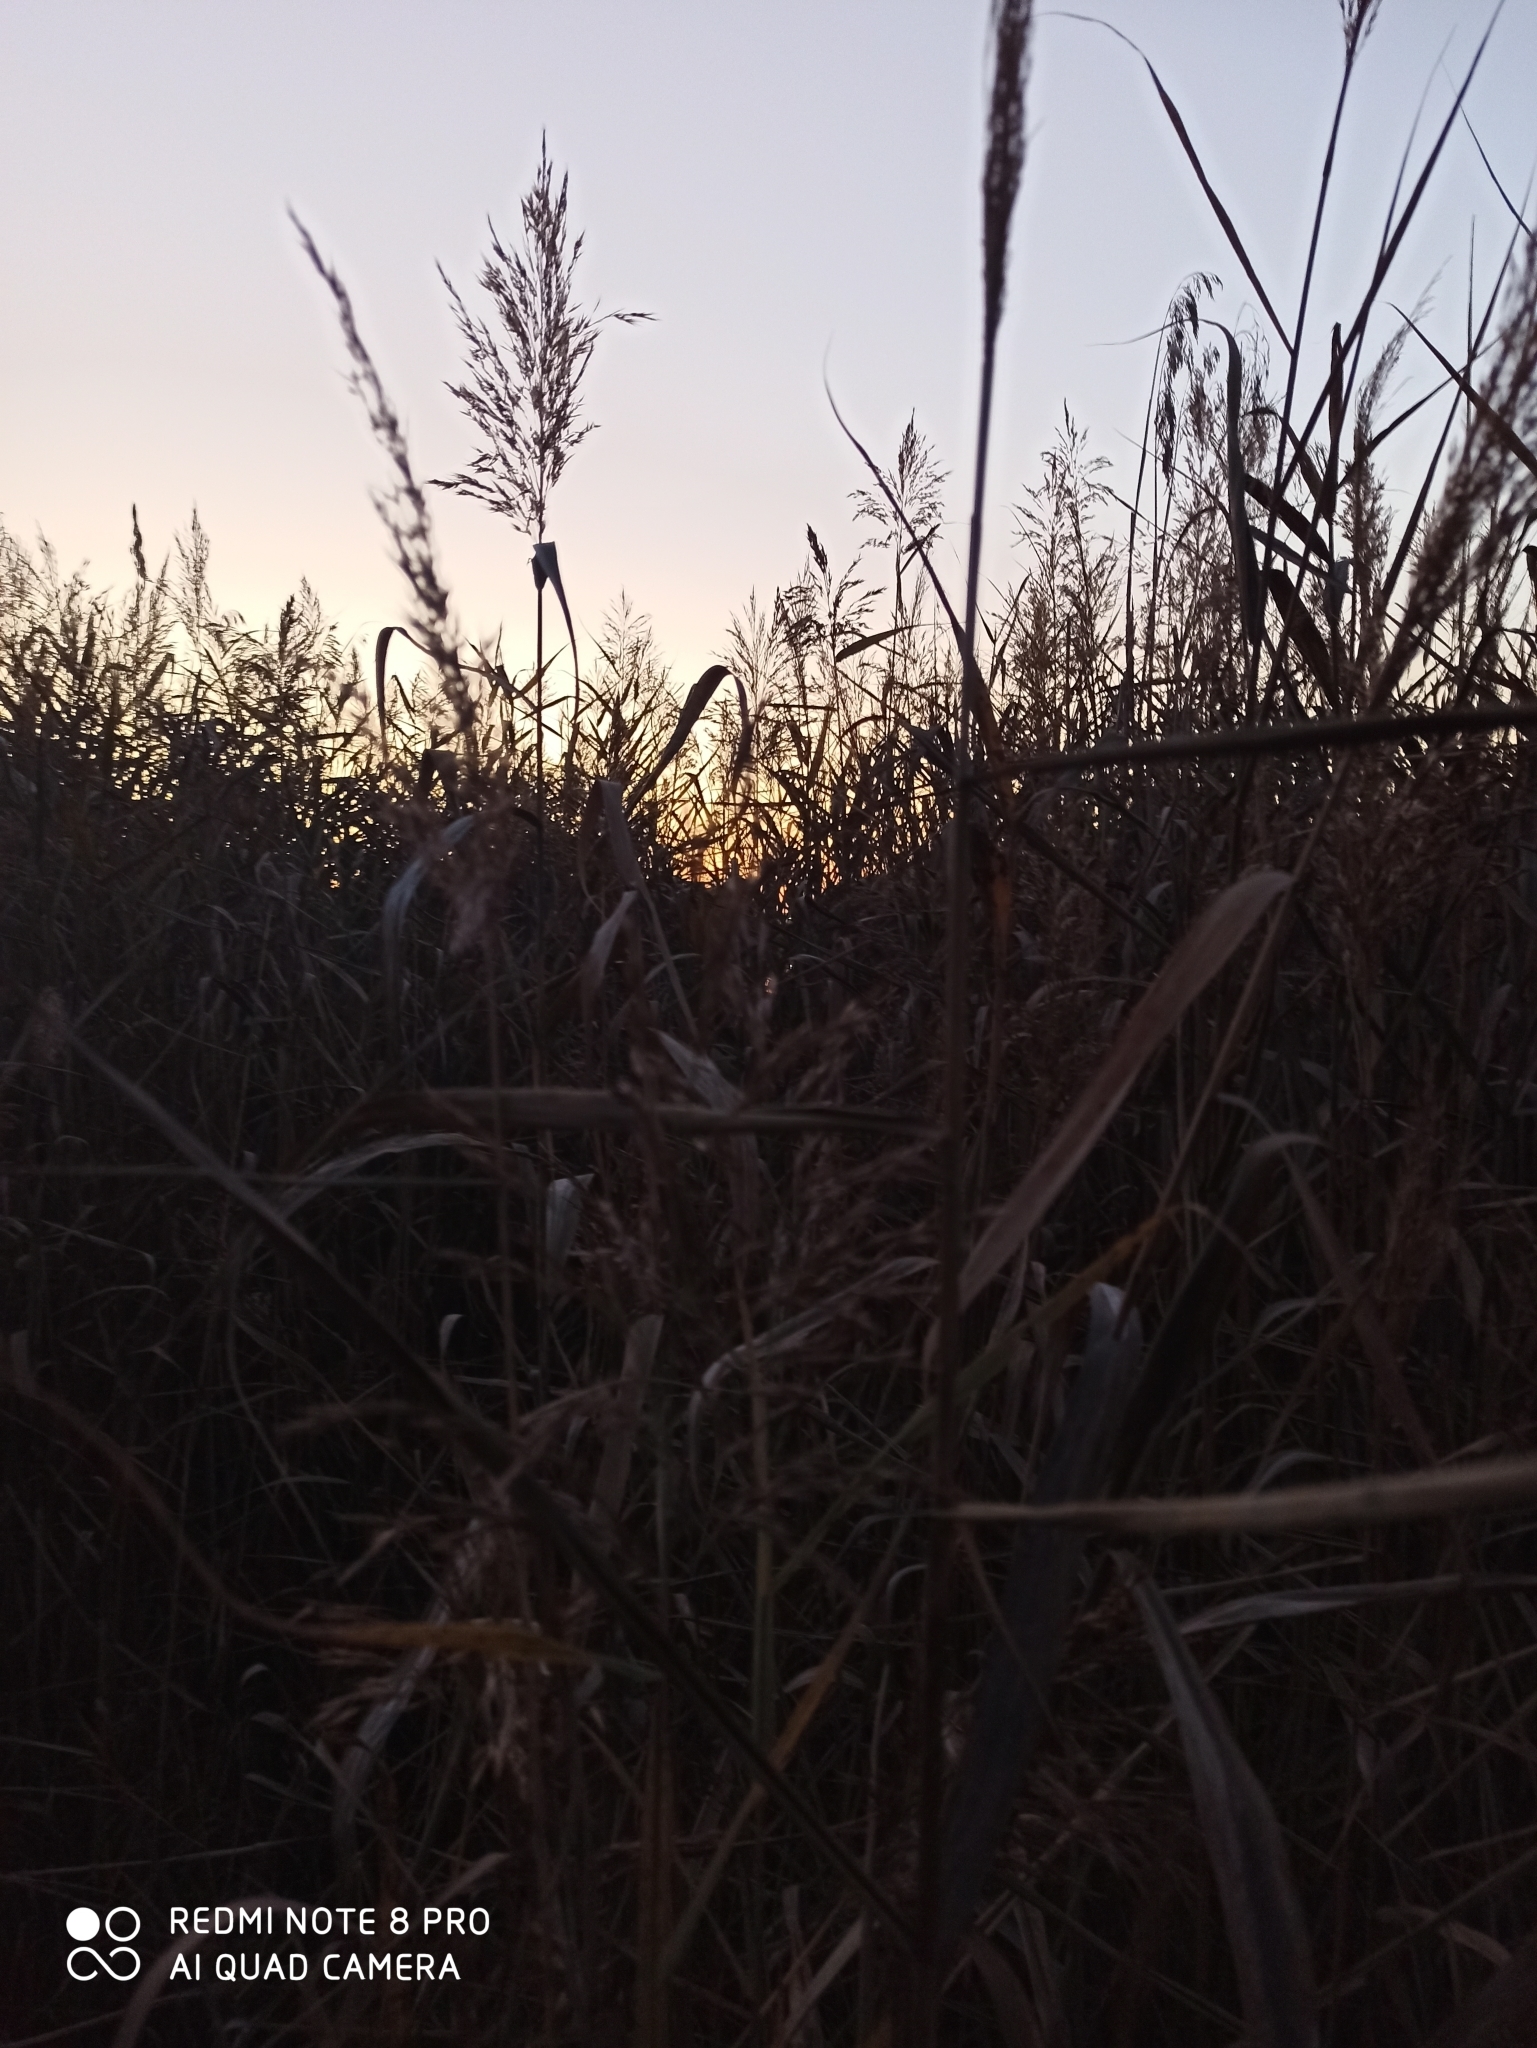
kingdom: Plantae
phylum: Tracheophyta
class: Liliopsida
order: Poales
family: Poaceae
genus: Phragmites
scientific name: Phragmites australis
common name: Common reed
